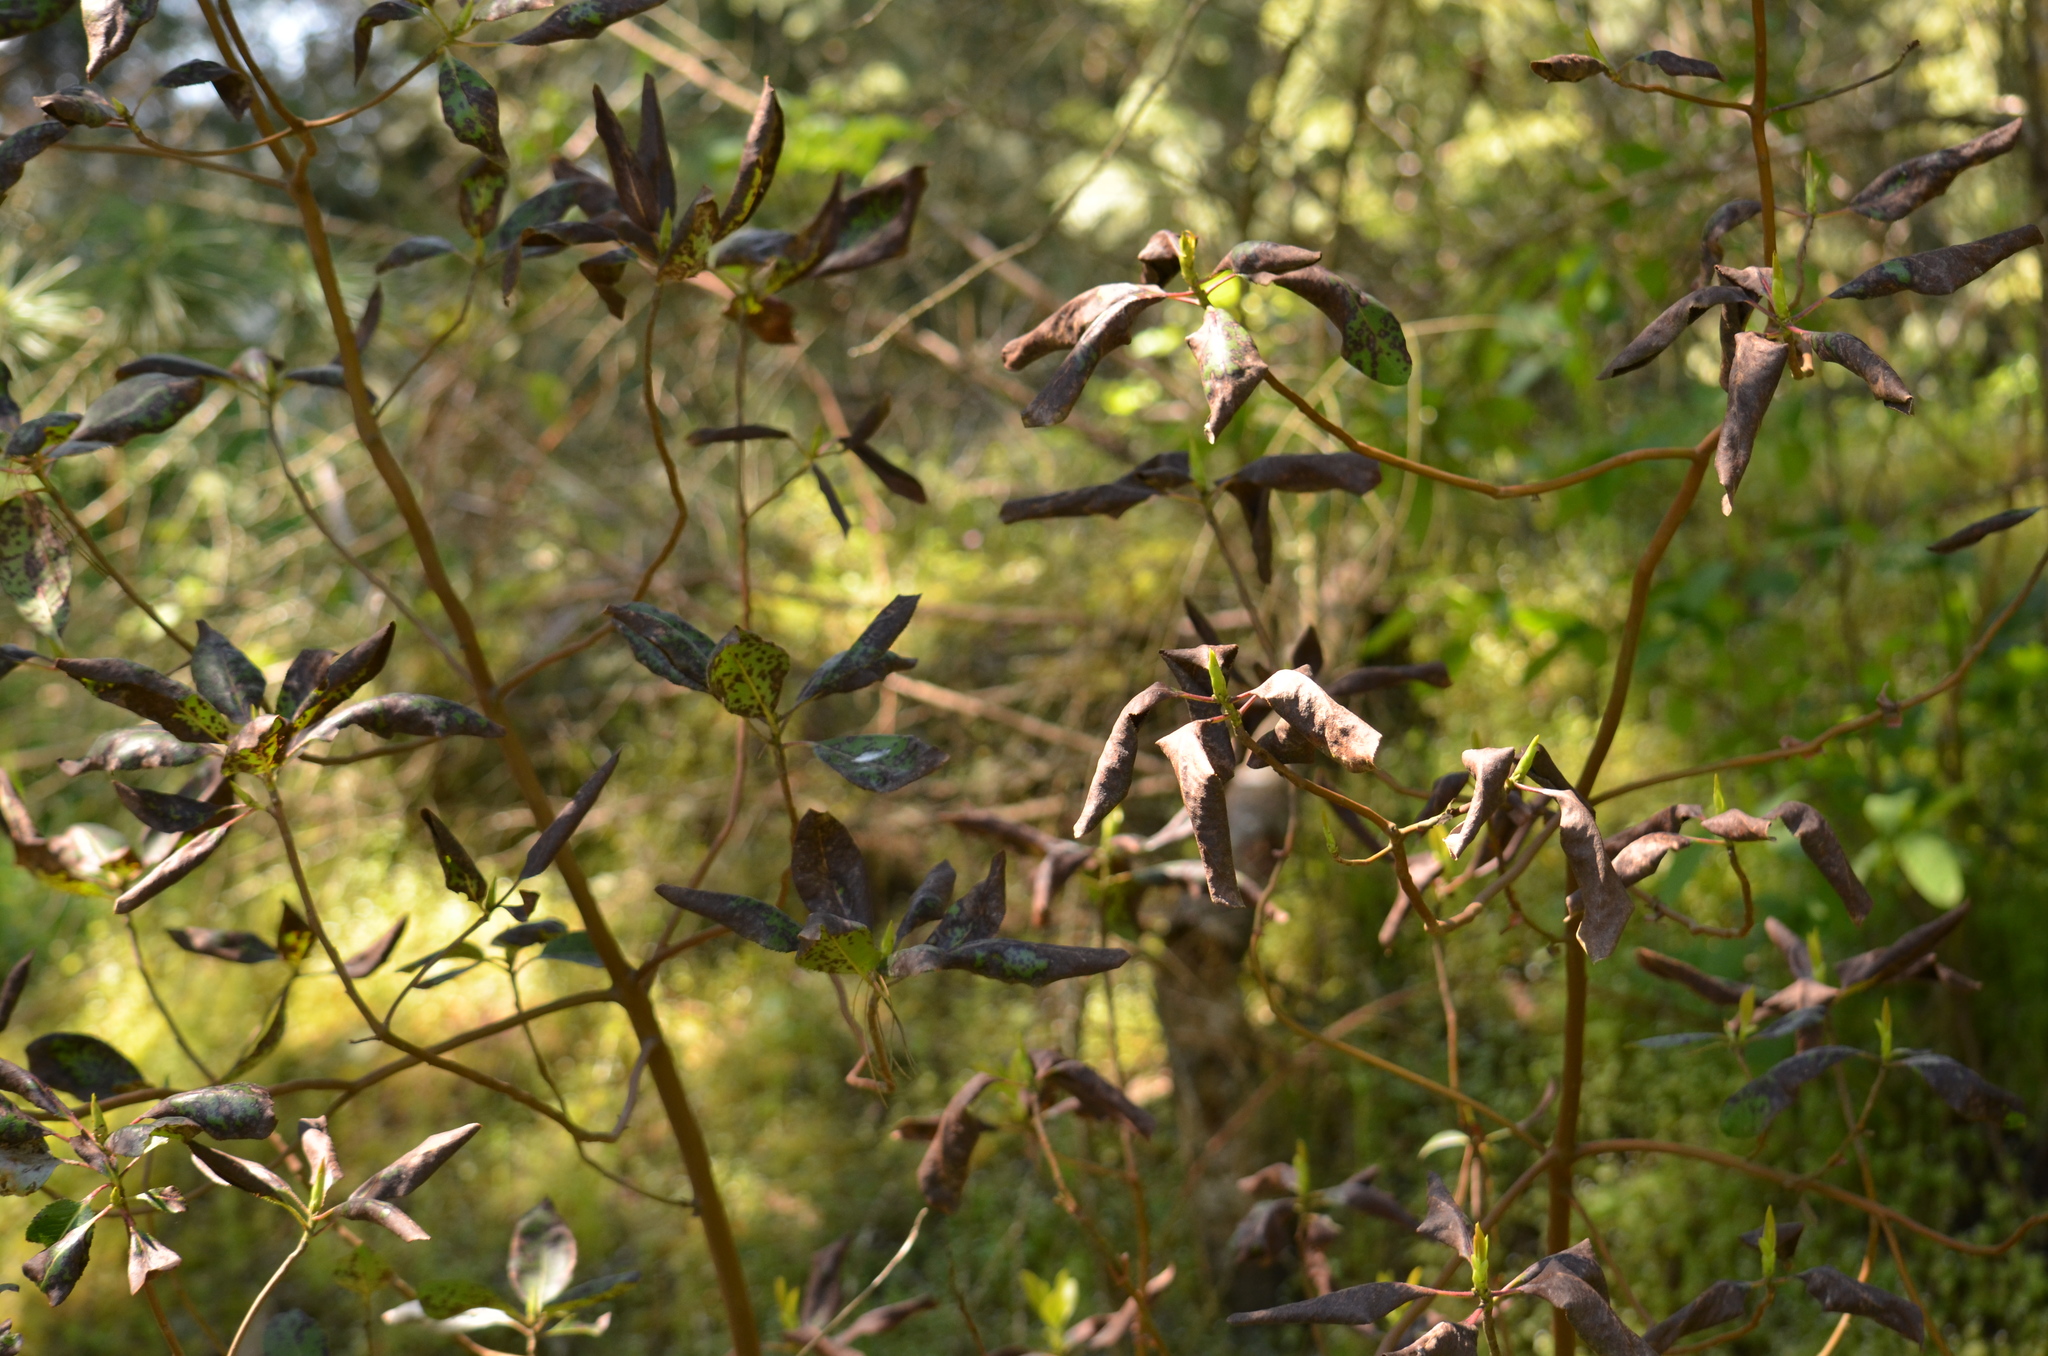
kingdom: Plantae
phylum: Tracheophyta
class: Magnoliopsida
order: Ericales
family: Ericaceae
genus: Arbutus
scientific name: Arbutus menziesii
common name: Pacific madrone
